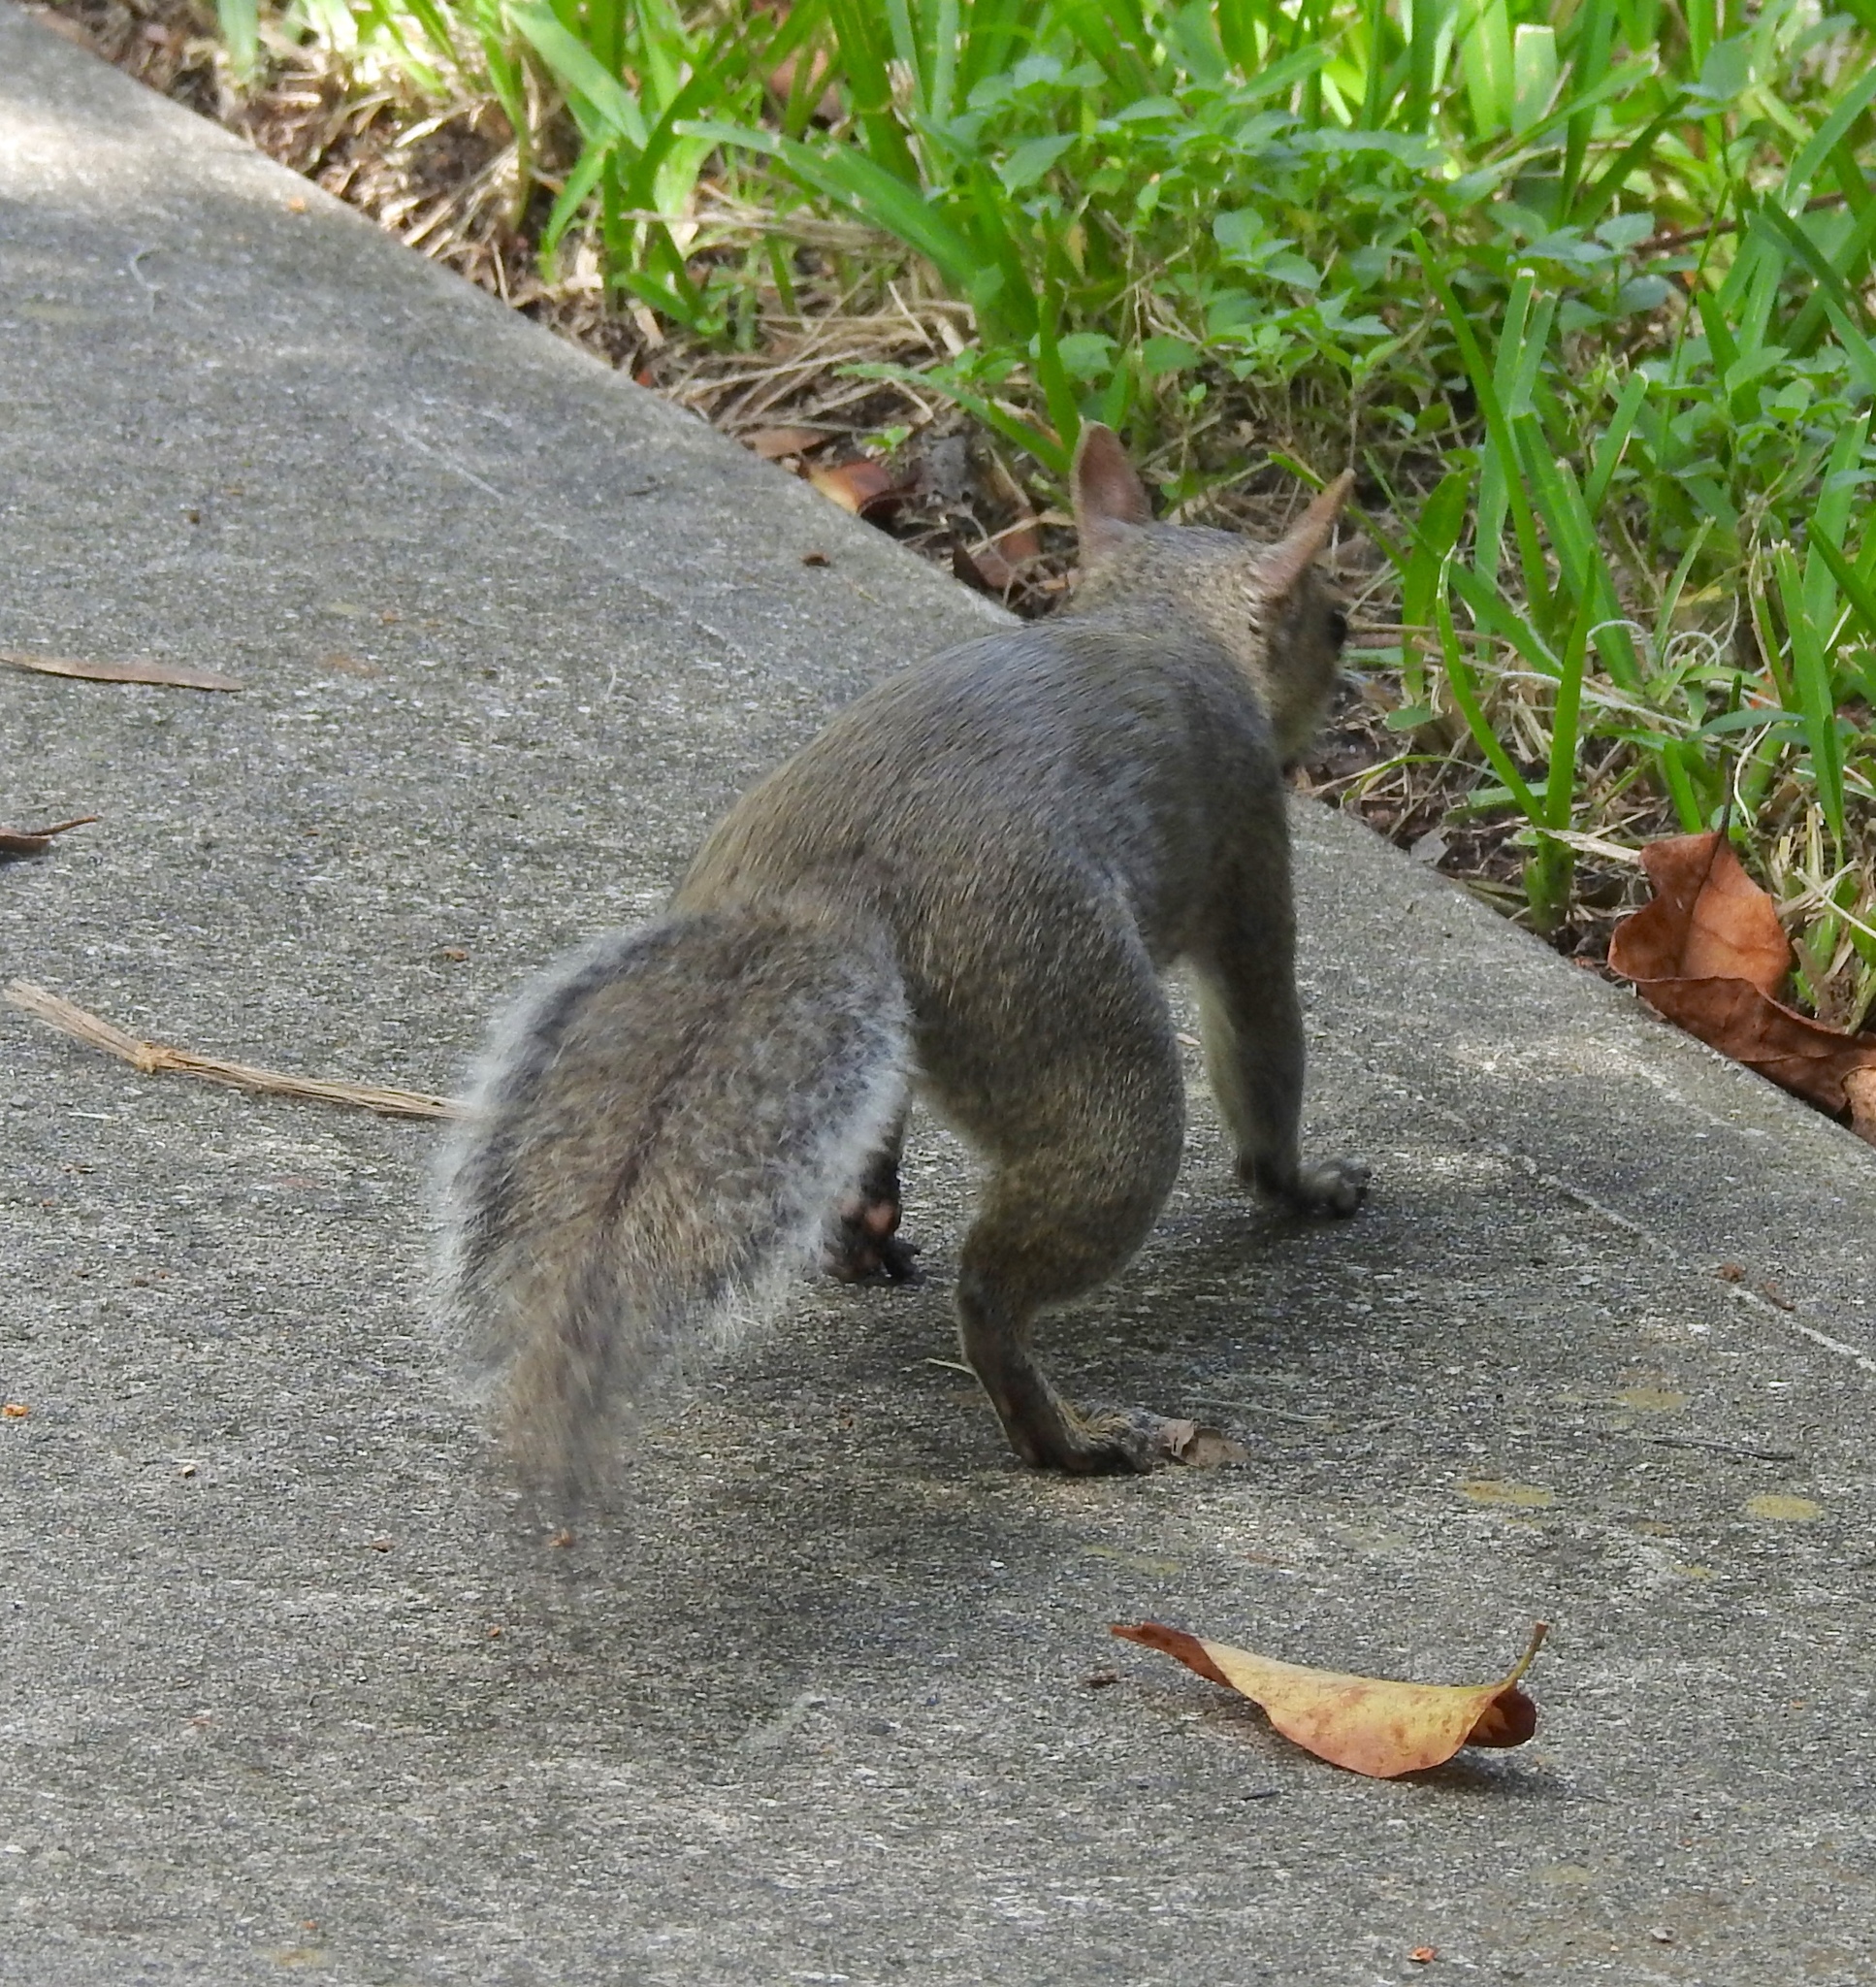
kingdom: Animalia
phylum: Chordata
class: Mammalia
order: Rodentia
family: Sciuridae
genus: Sciurus
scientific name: Sciurus carolinensis
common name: Eastern gray squirrel
